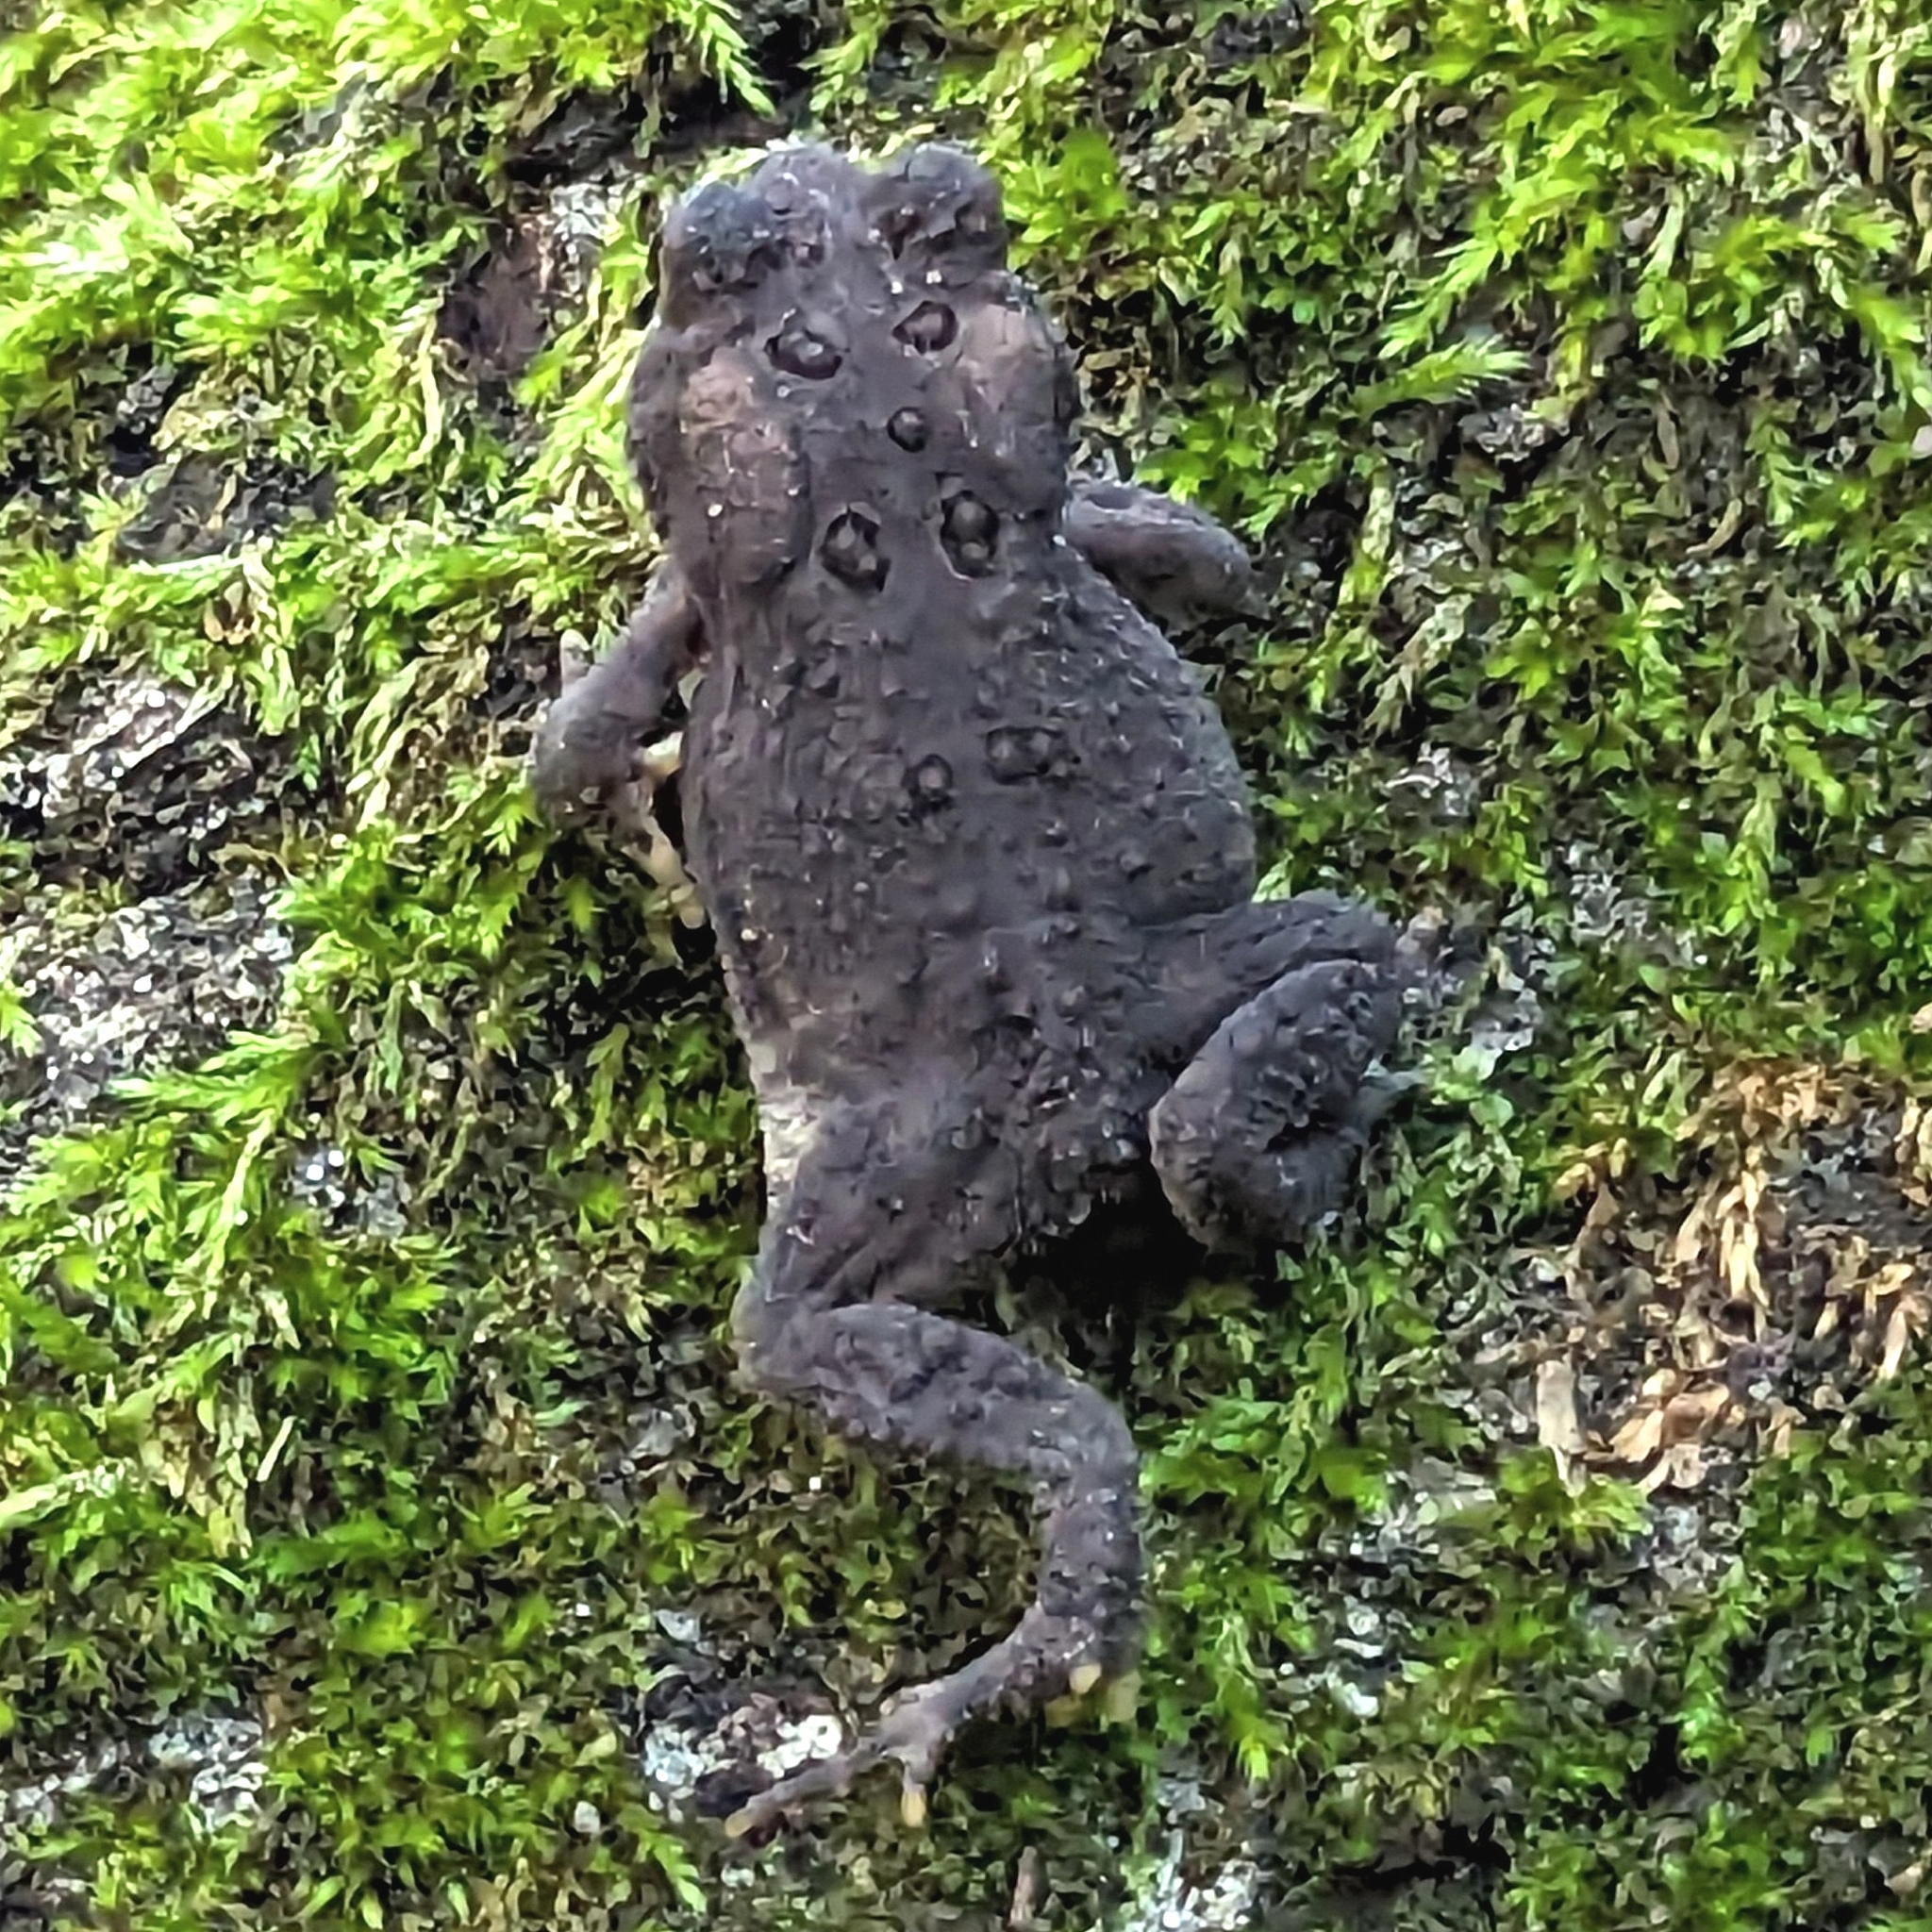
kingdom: Animalia
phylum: Chordata
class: Amphibia
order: Anura
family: Bufonidae
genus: Anaxyrus
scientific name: Anaxyrus americanus
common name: American toad
